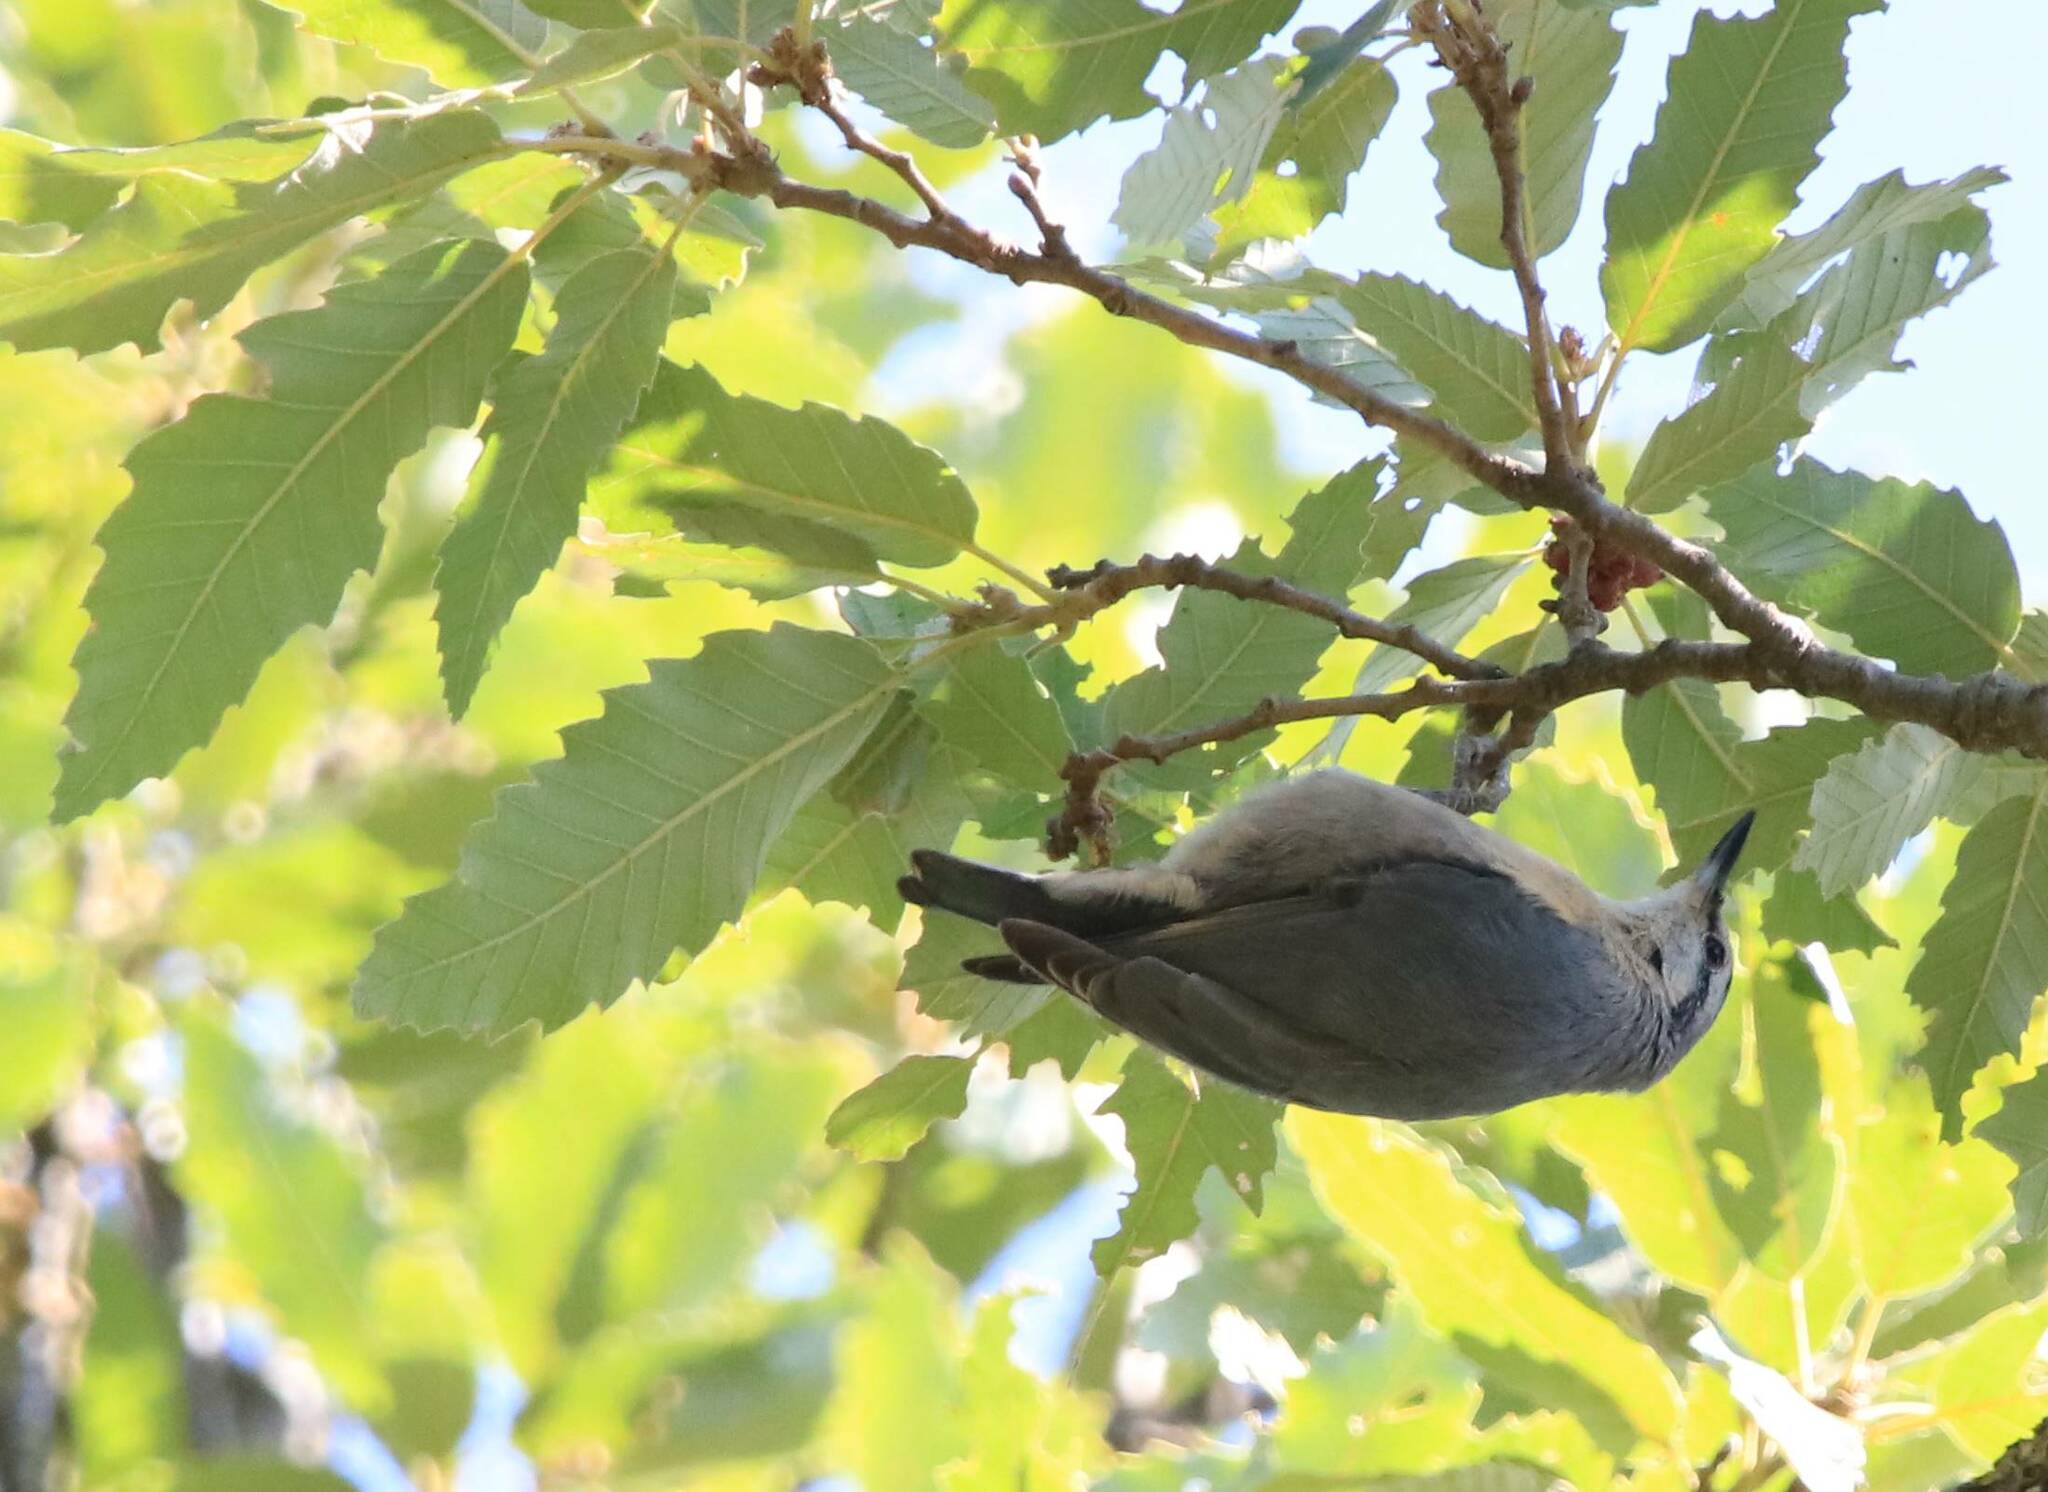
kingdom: Animalia
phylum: Chordata
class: Aves
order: Passeriformes
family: Sittidae
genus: Sitta
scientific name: Sitta ledanti
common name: Algerian nuthatch
